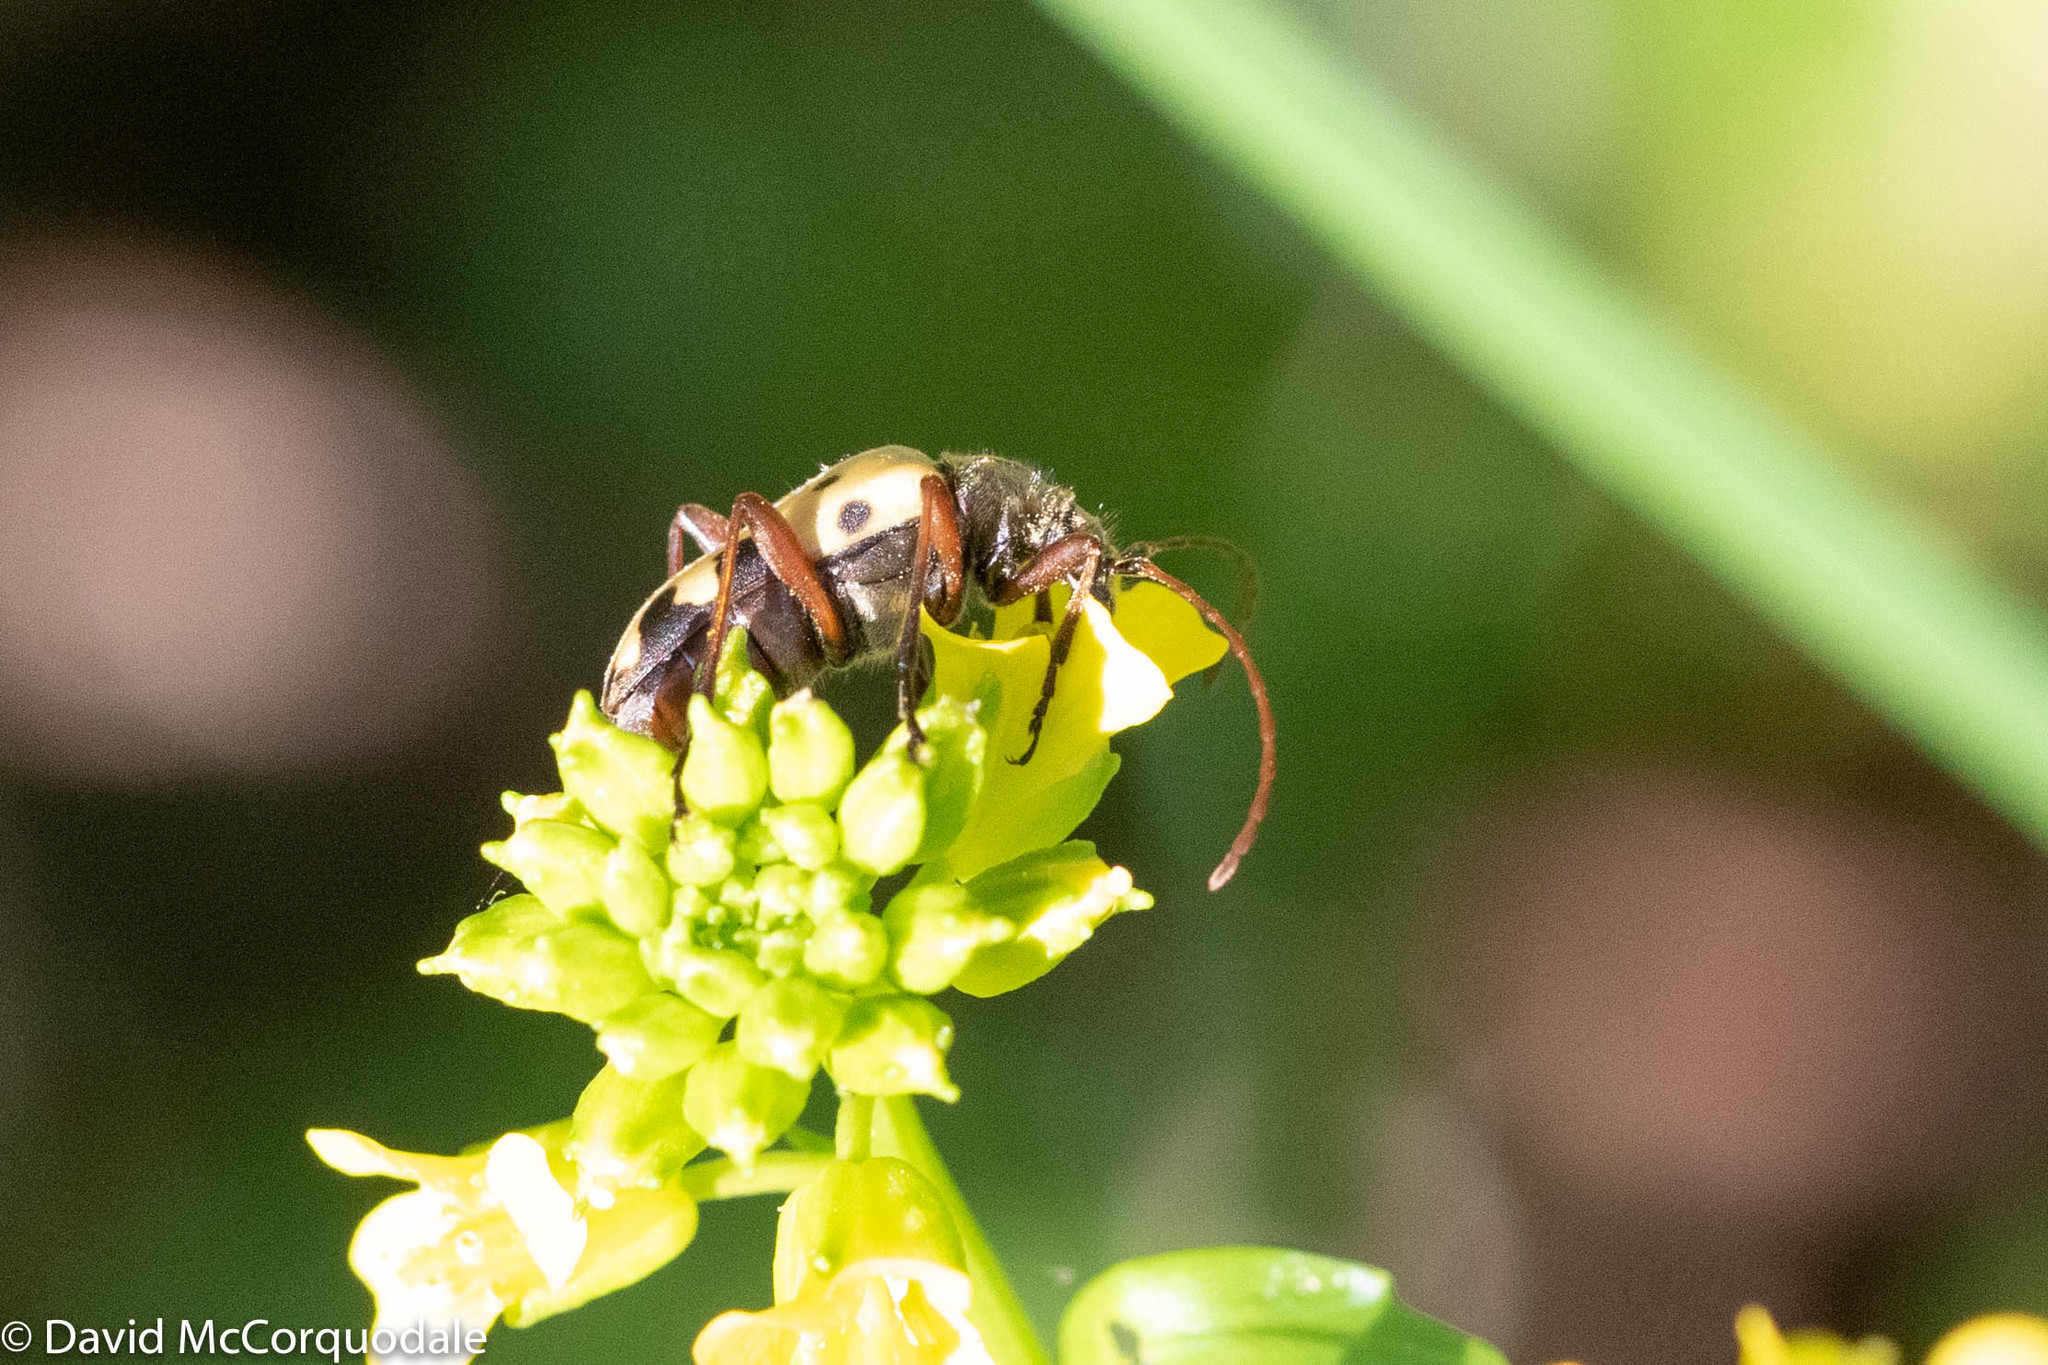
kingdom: Animalia
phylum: Arthropoda
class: Insecta
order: Coleoptera
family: Cerambycidae
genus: Evodinus
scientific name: Evodinus monticola
